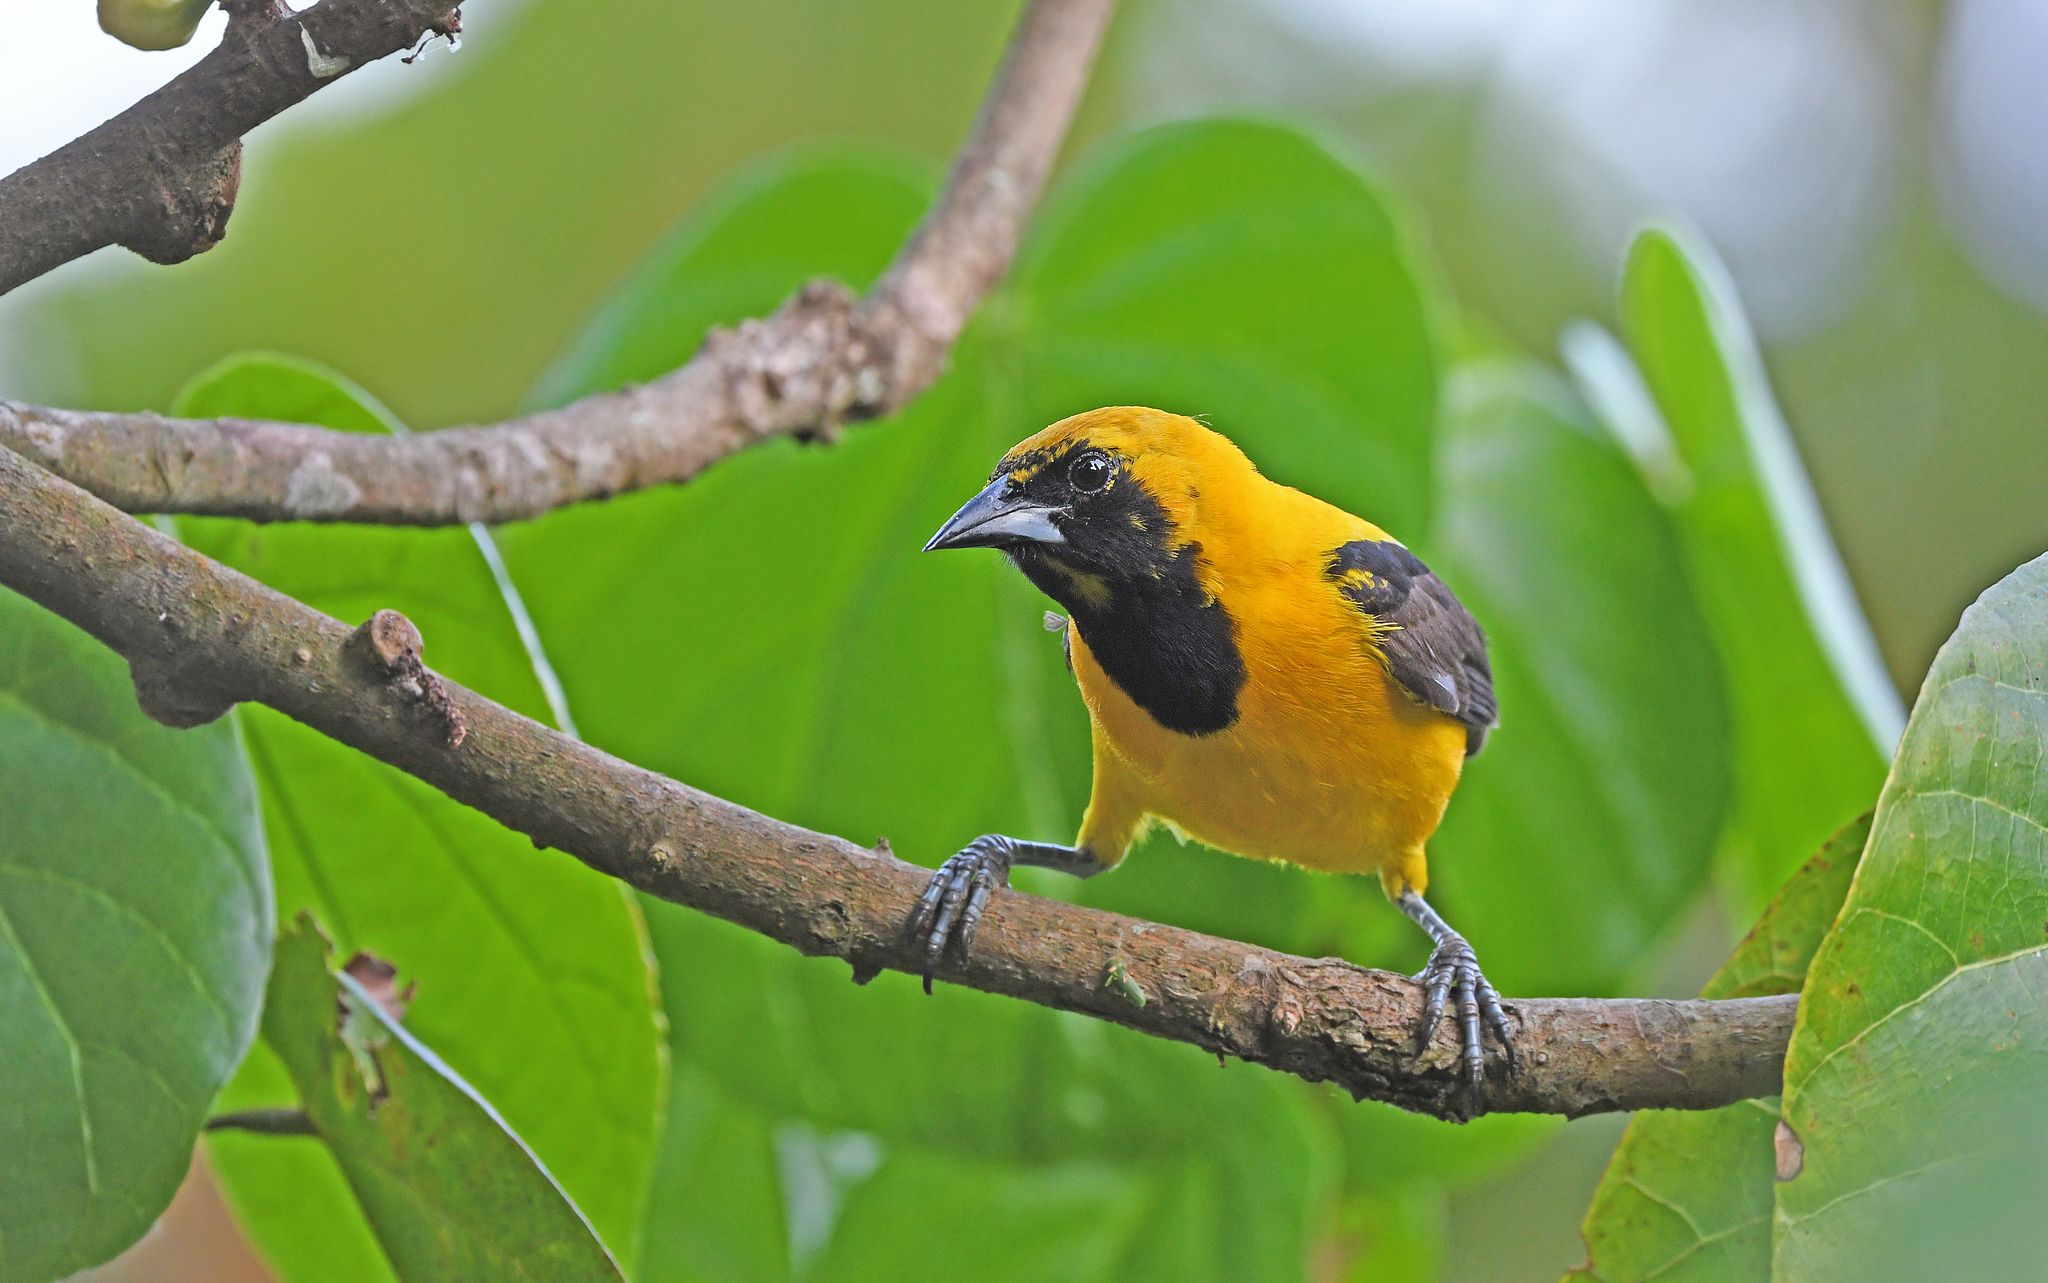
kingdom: Animalia
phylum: Chordata
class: Aves
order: Passeriformes
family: Icteridae
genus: Icterus
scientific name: Icterus chrysater
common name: Yellow-backed oriole
